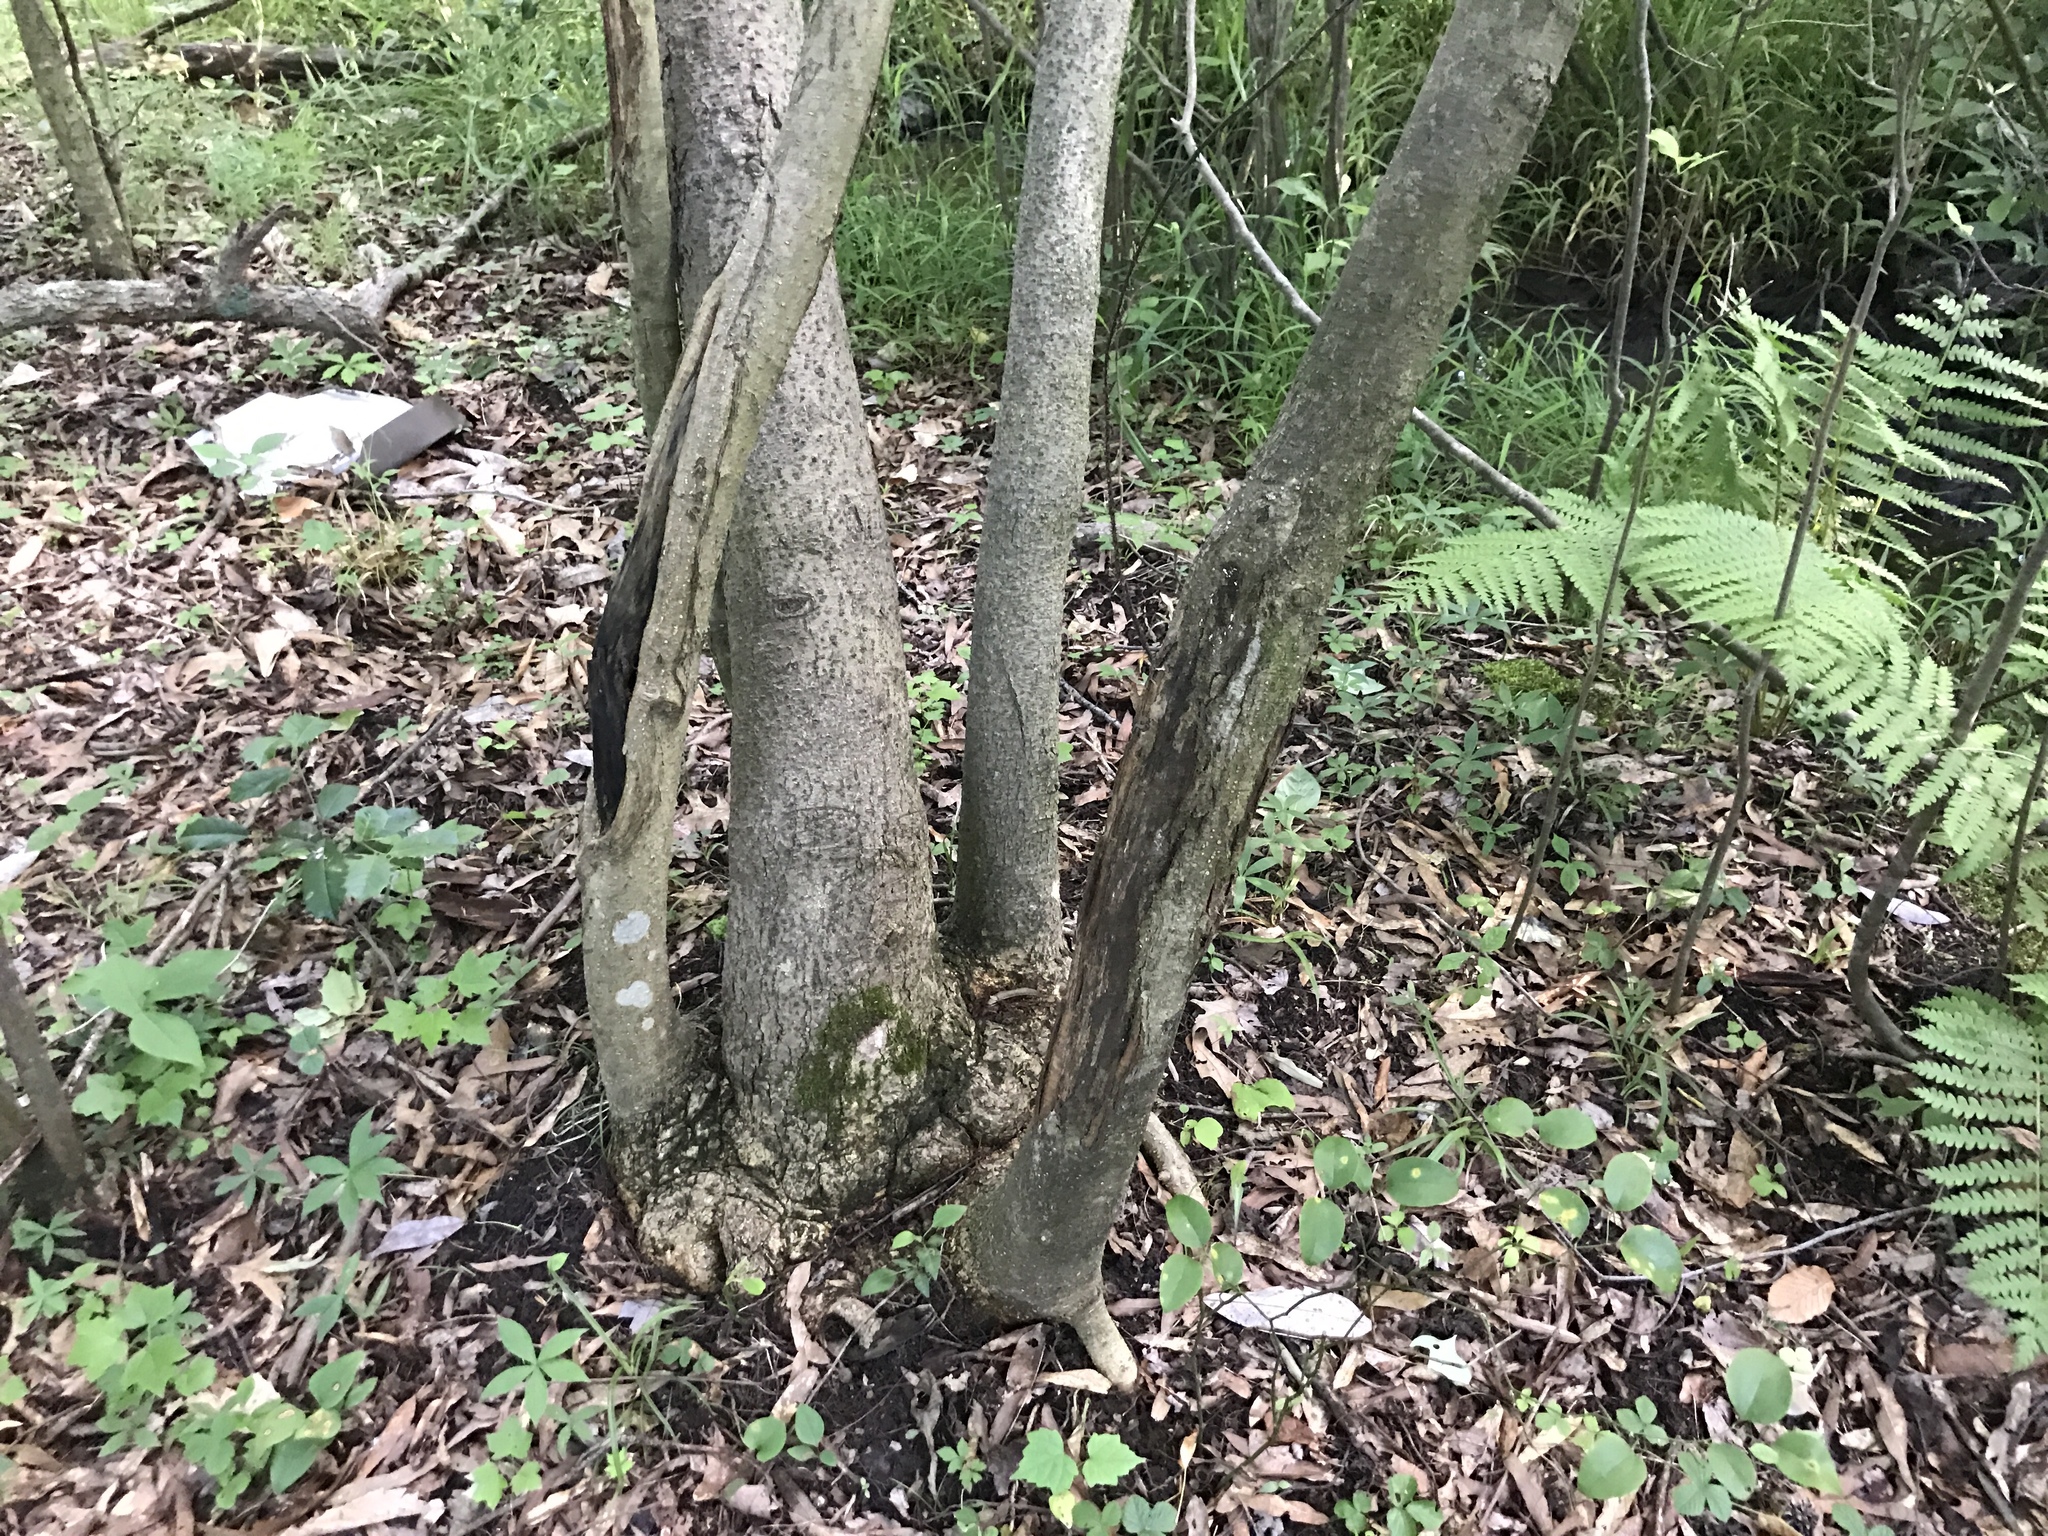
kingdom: Plantae
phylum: Tracheophyta
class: Magnoliopsida
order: Magnoliales
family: Magnoliaceae
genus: Magnolia
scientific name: Magnolia virginiana
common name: Swamp bay
